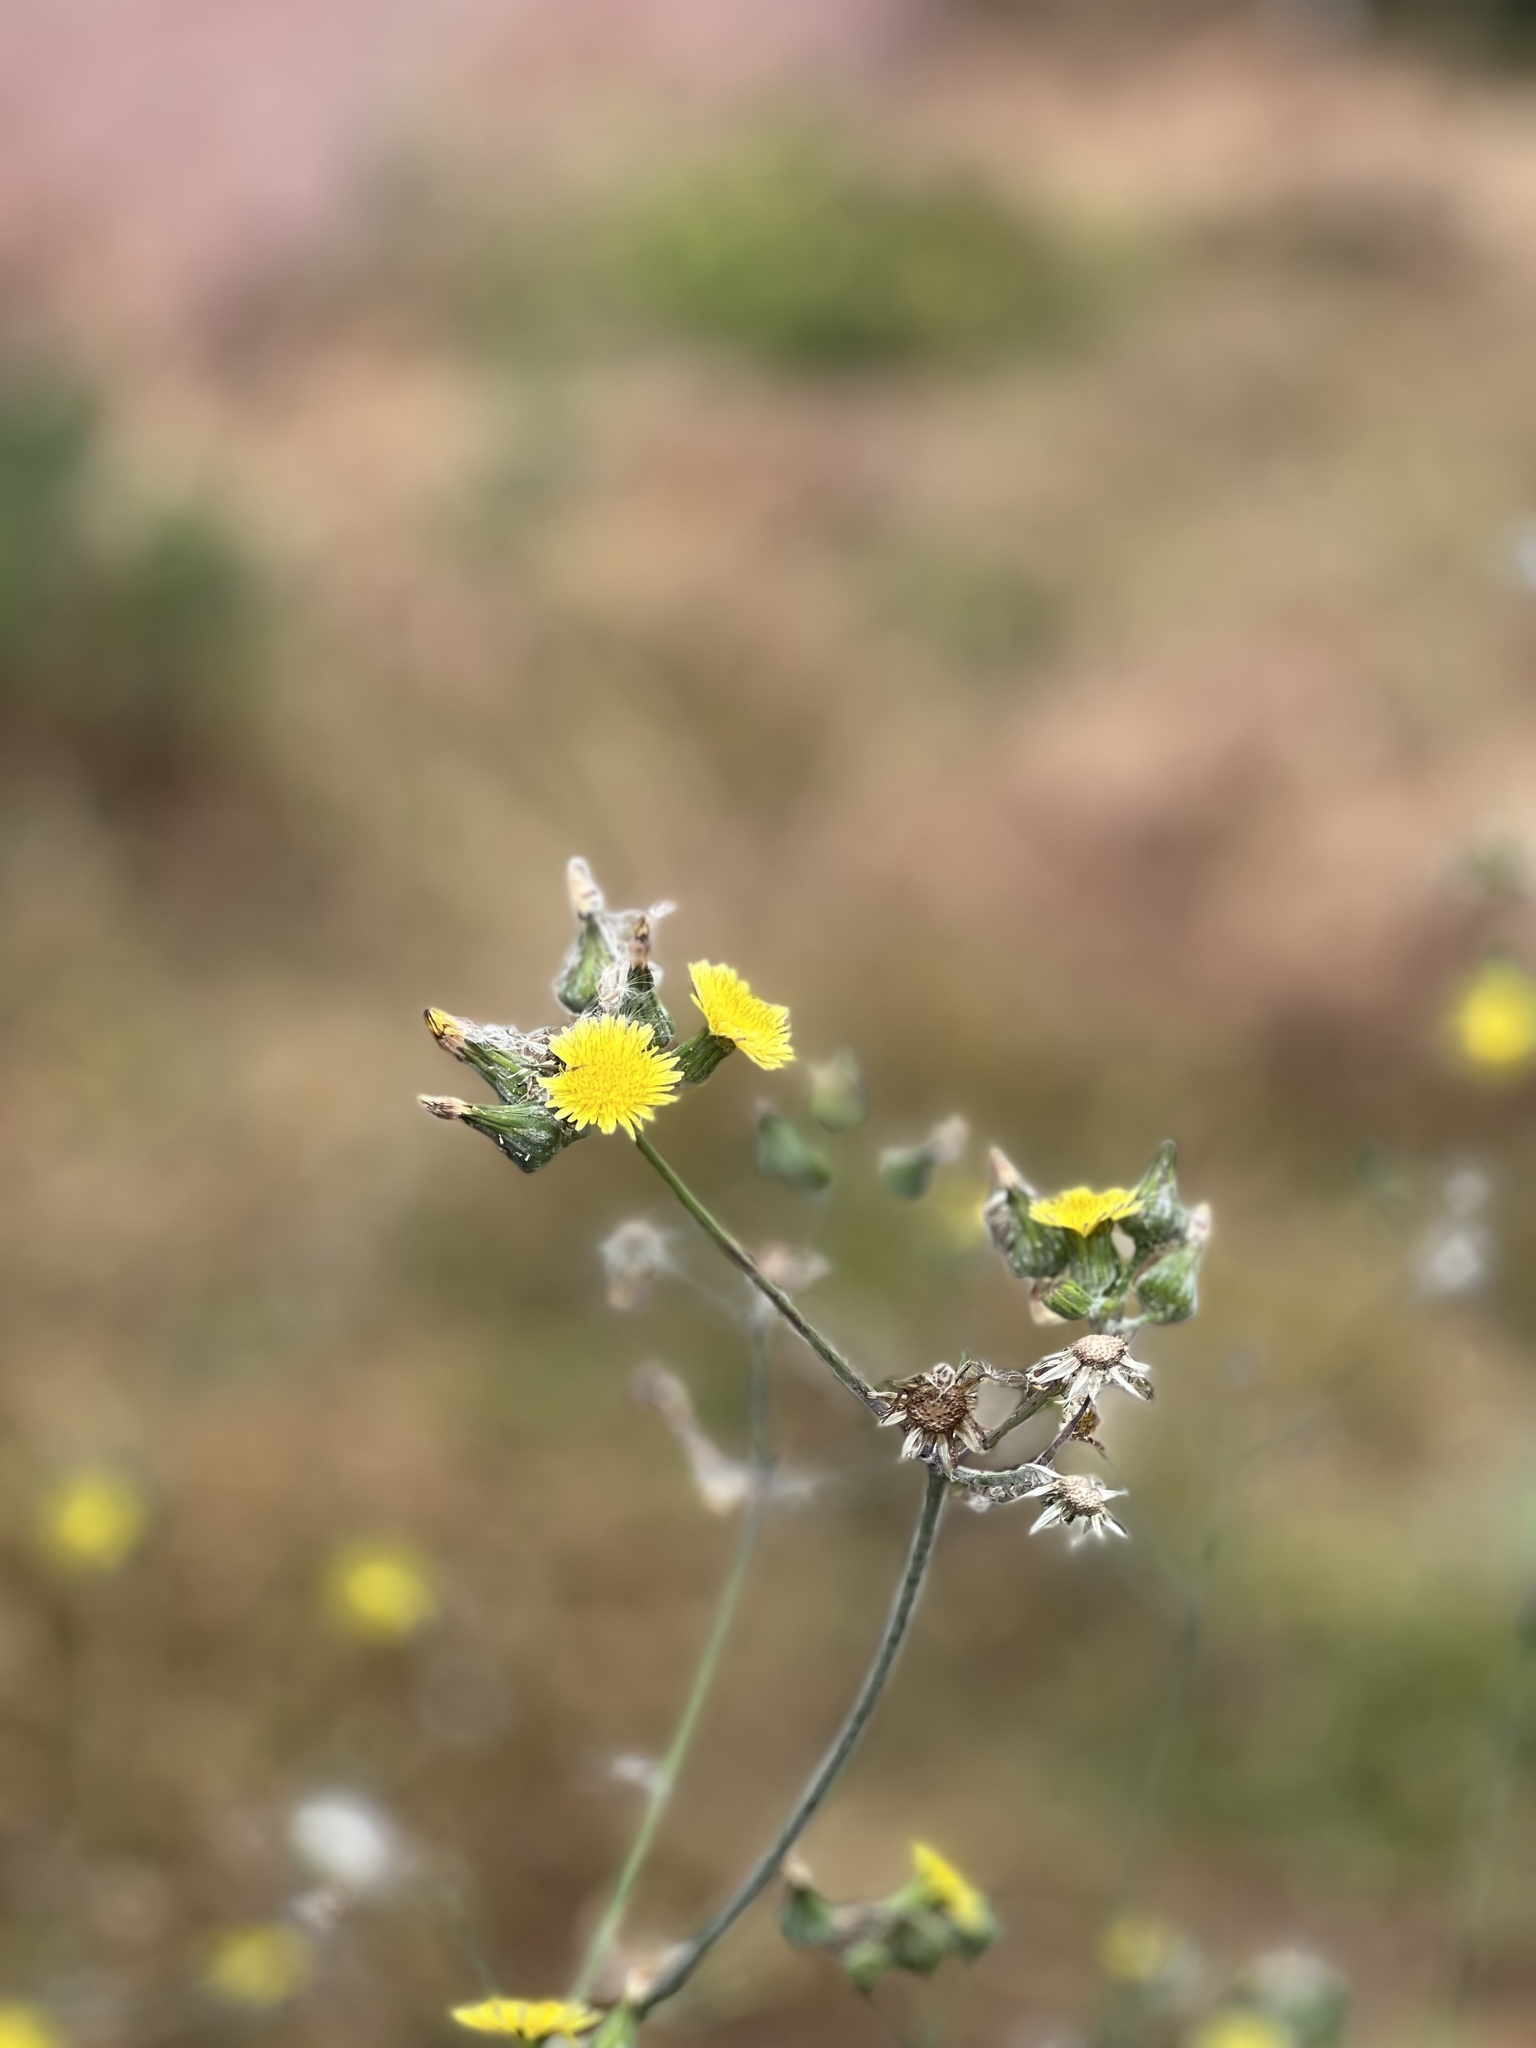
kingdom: Plantae
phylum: Tracheophyta
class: Magnoliopsida
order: Asterales
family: Asteraceae
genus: Pulicaria
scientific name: Pulicaria paludosa
